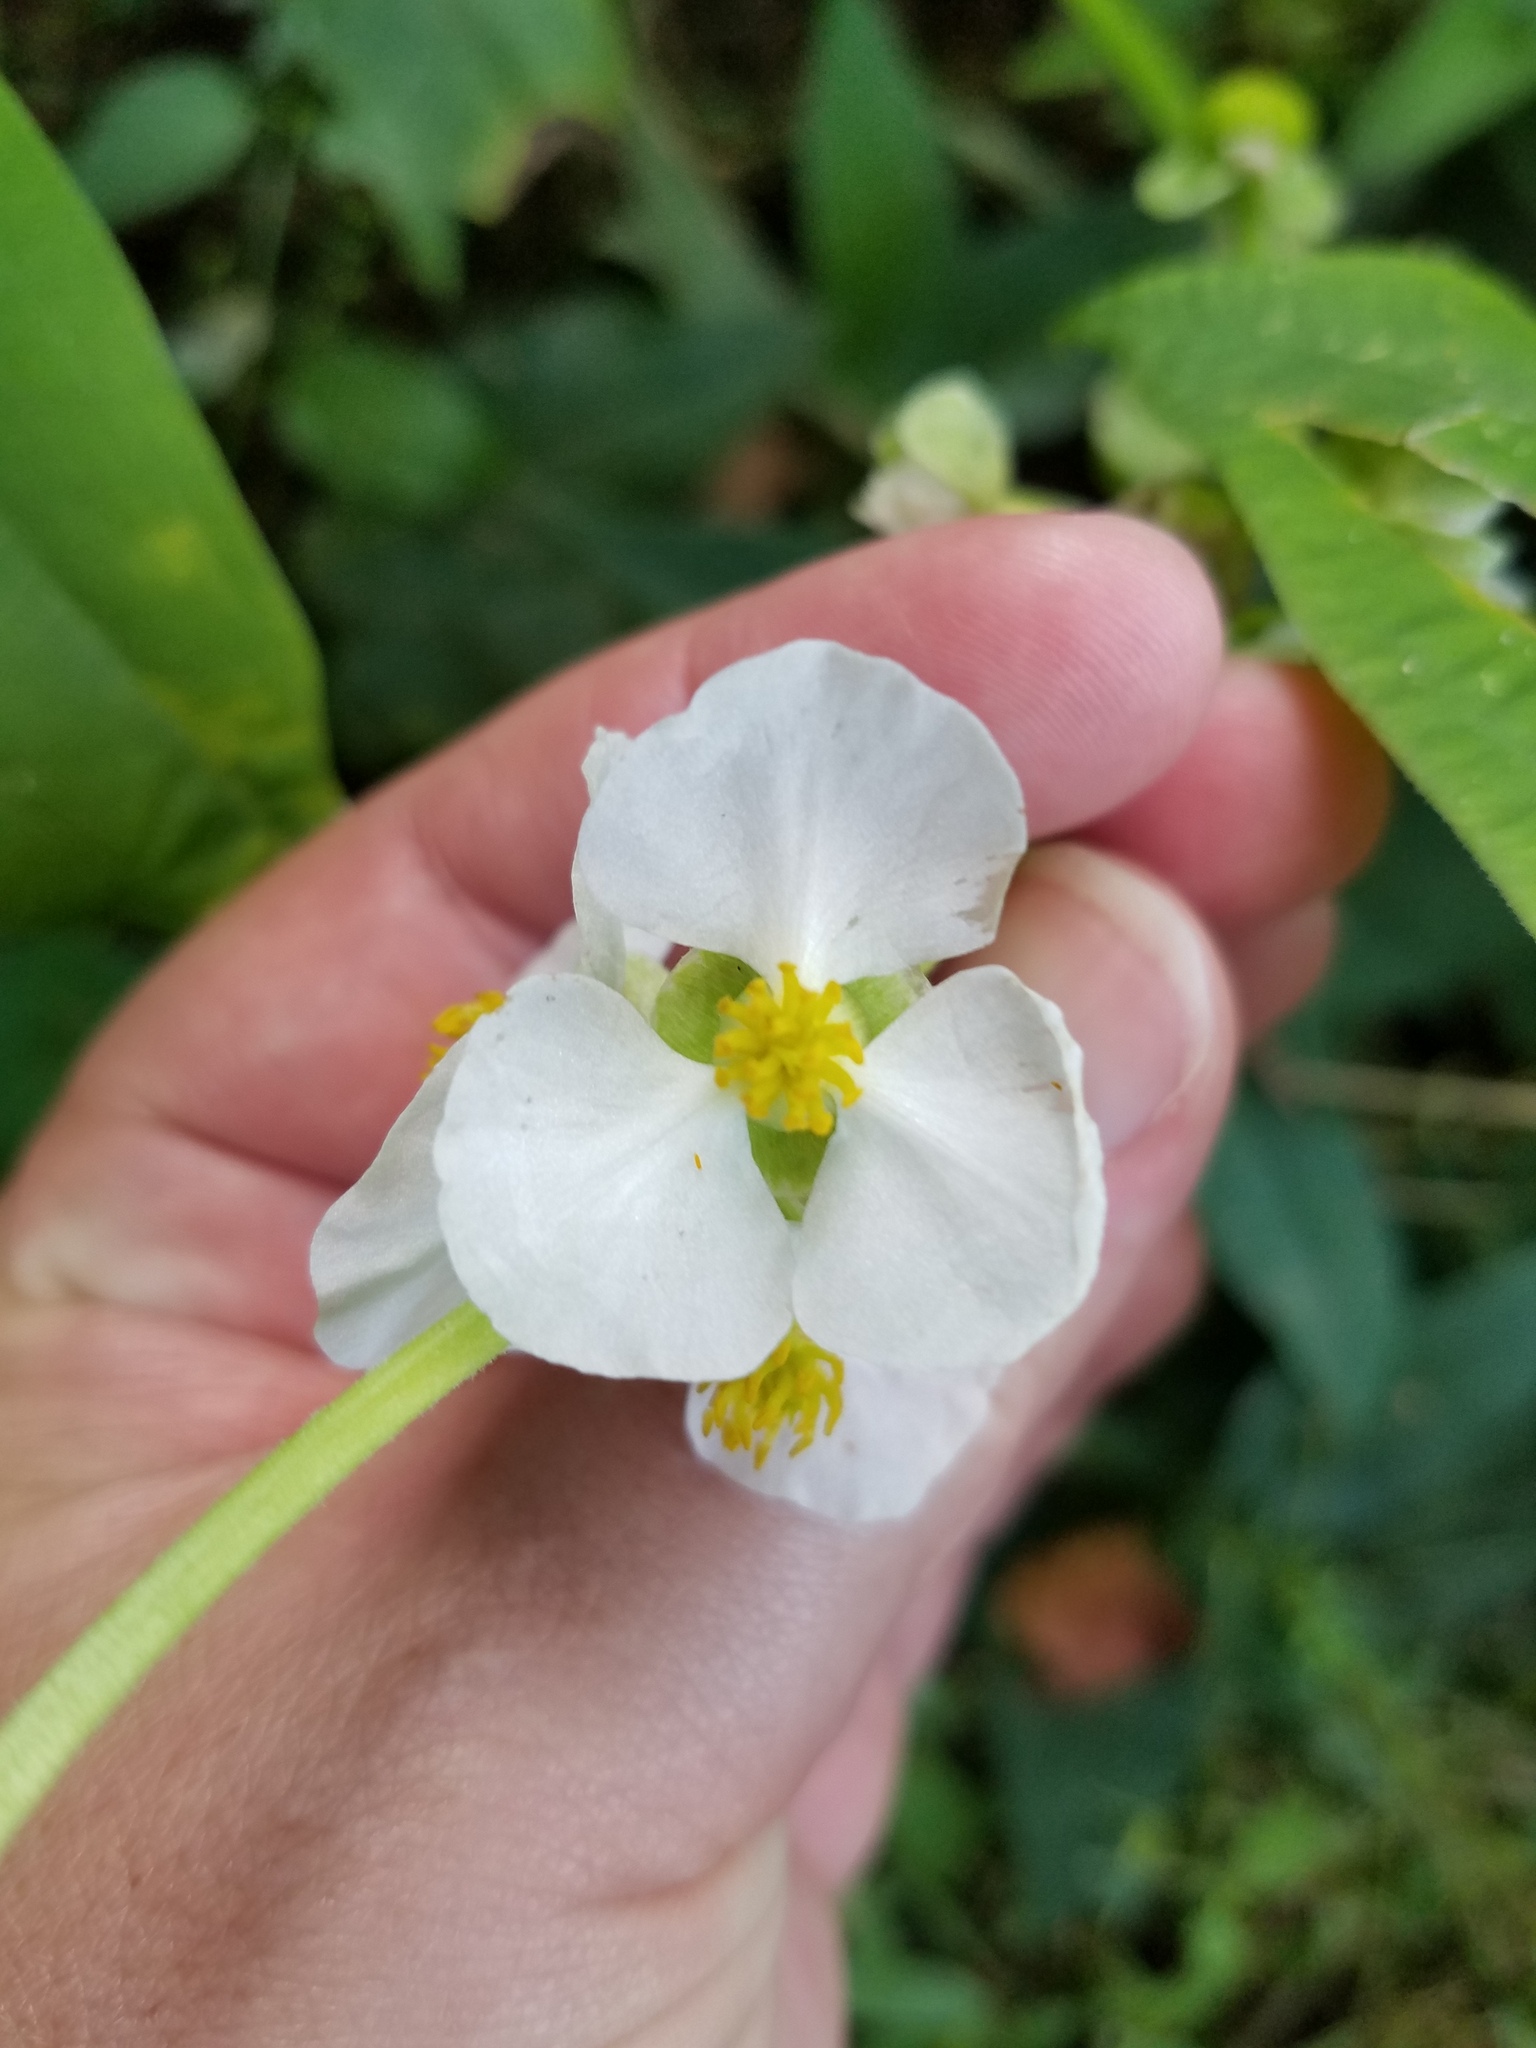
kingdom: Plantae
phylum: Tracheophyta
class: Liliopsida
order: Alismatales
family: Alismataceae
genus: Sagittaria
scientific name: Sagittaria latifolia
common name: Duck-potato
